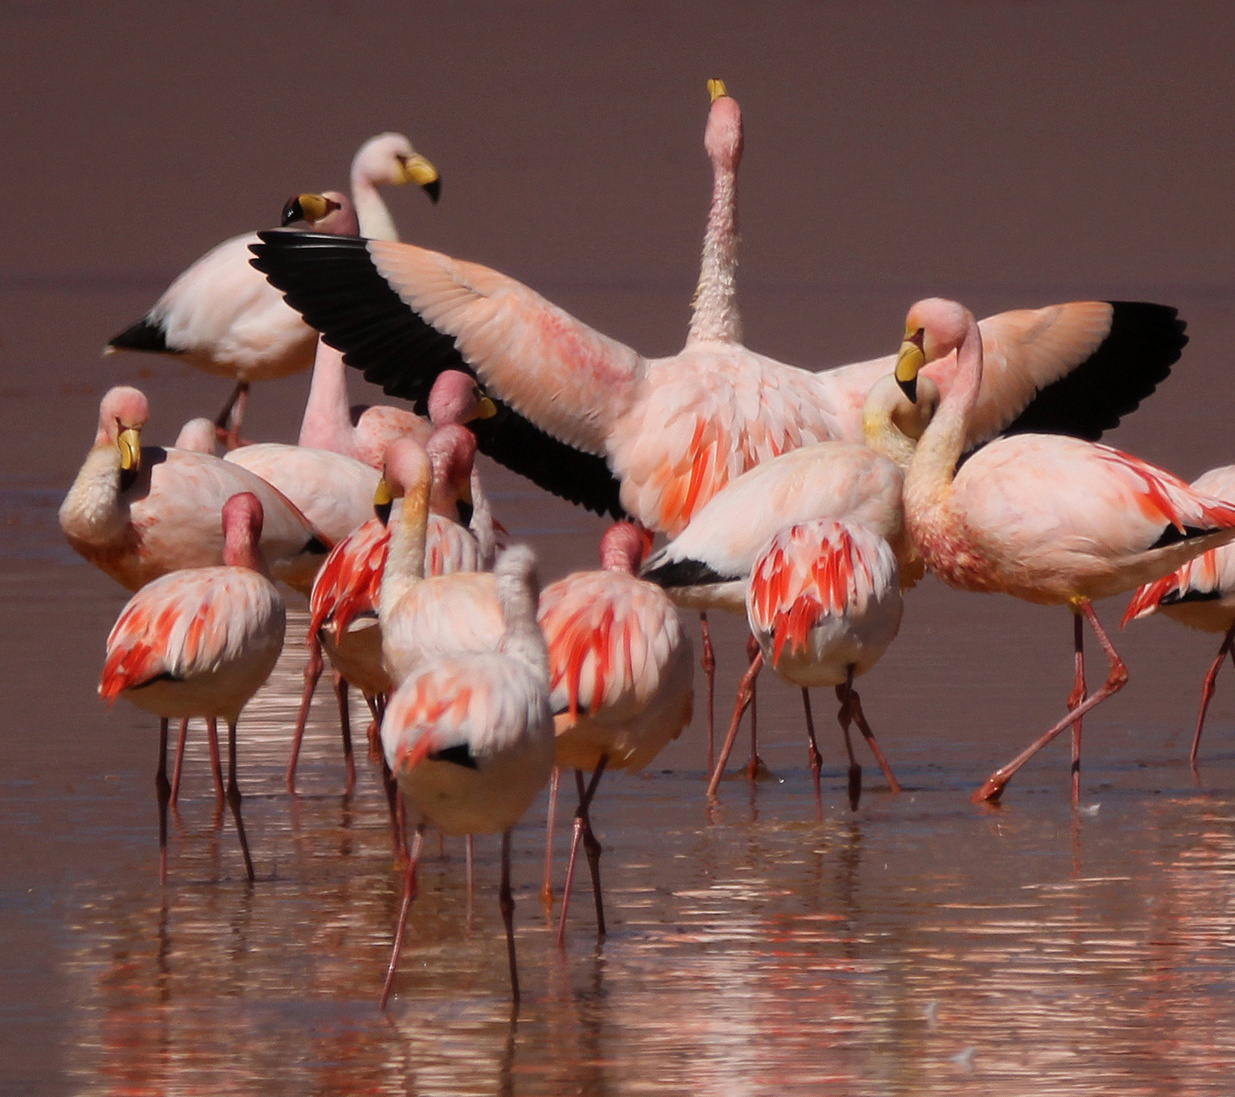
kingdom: Animalia
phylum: Chordata
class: Aves
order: Phoenicopteriformes
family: Phoenicopteridae
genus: Phoenicoparrus
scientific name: Phoenicoparrus jamesi
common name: James's flamingo
